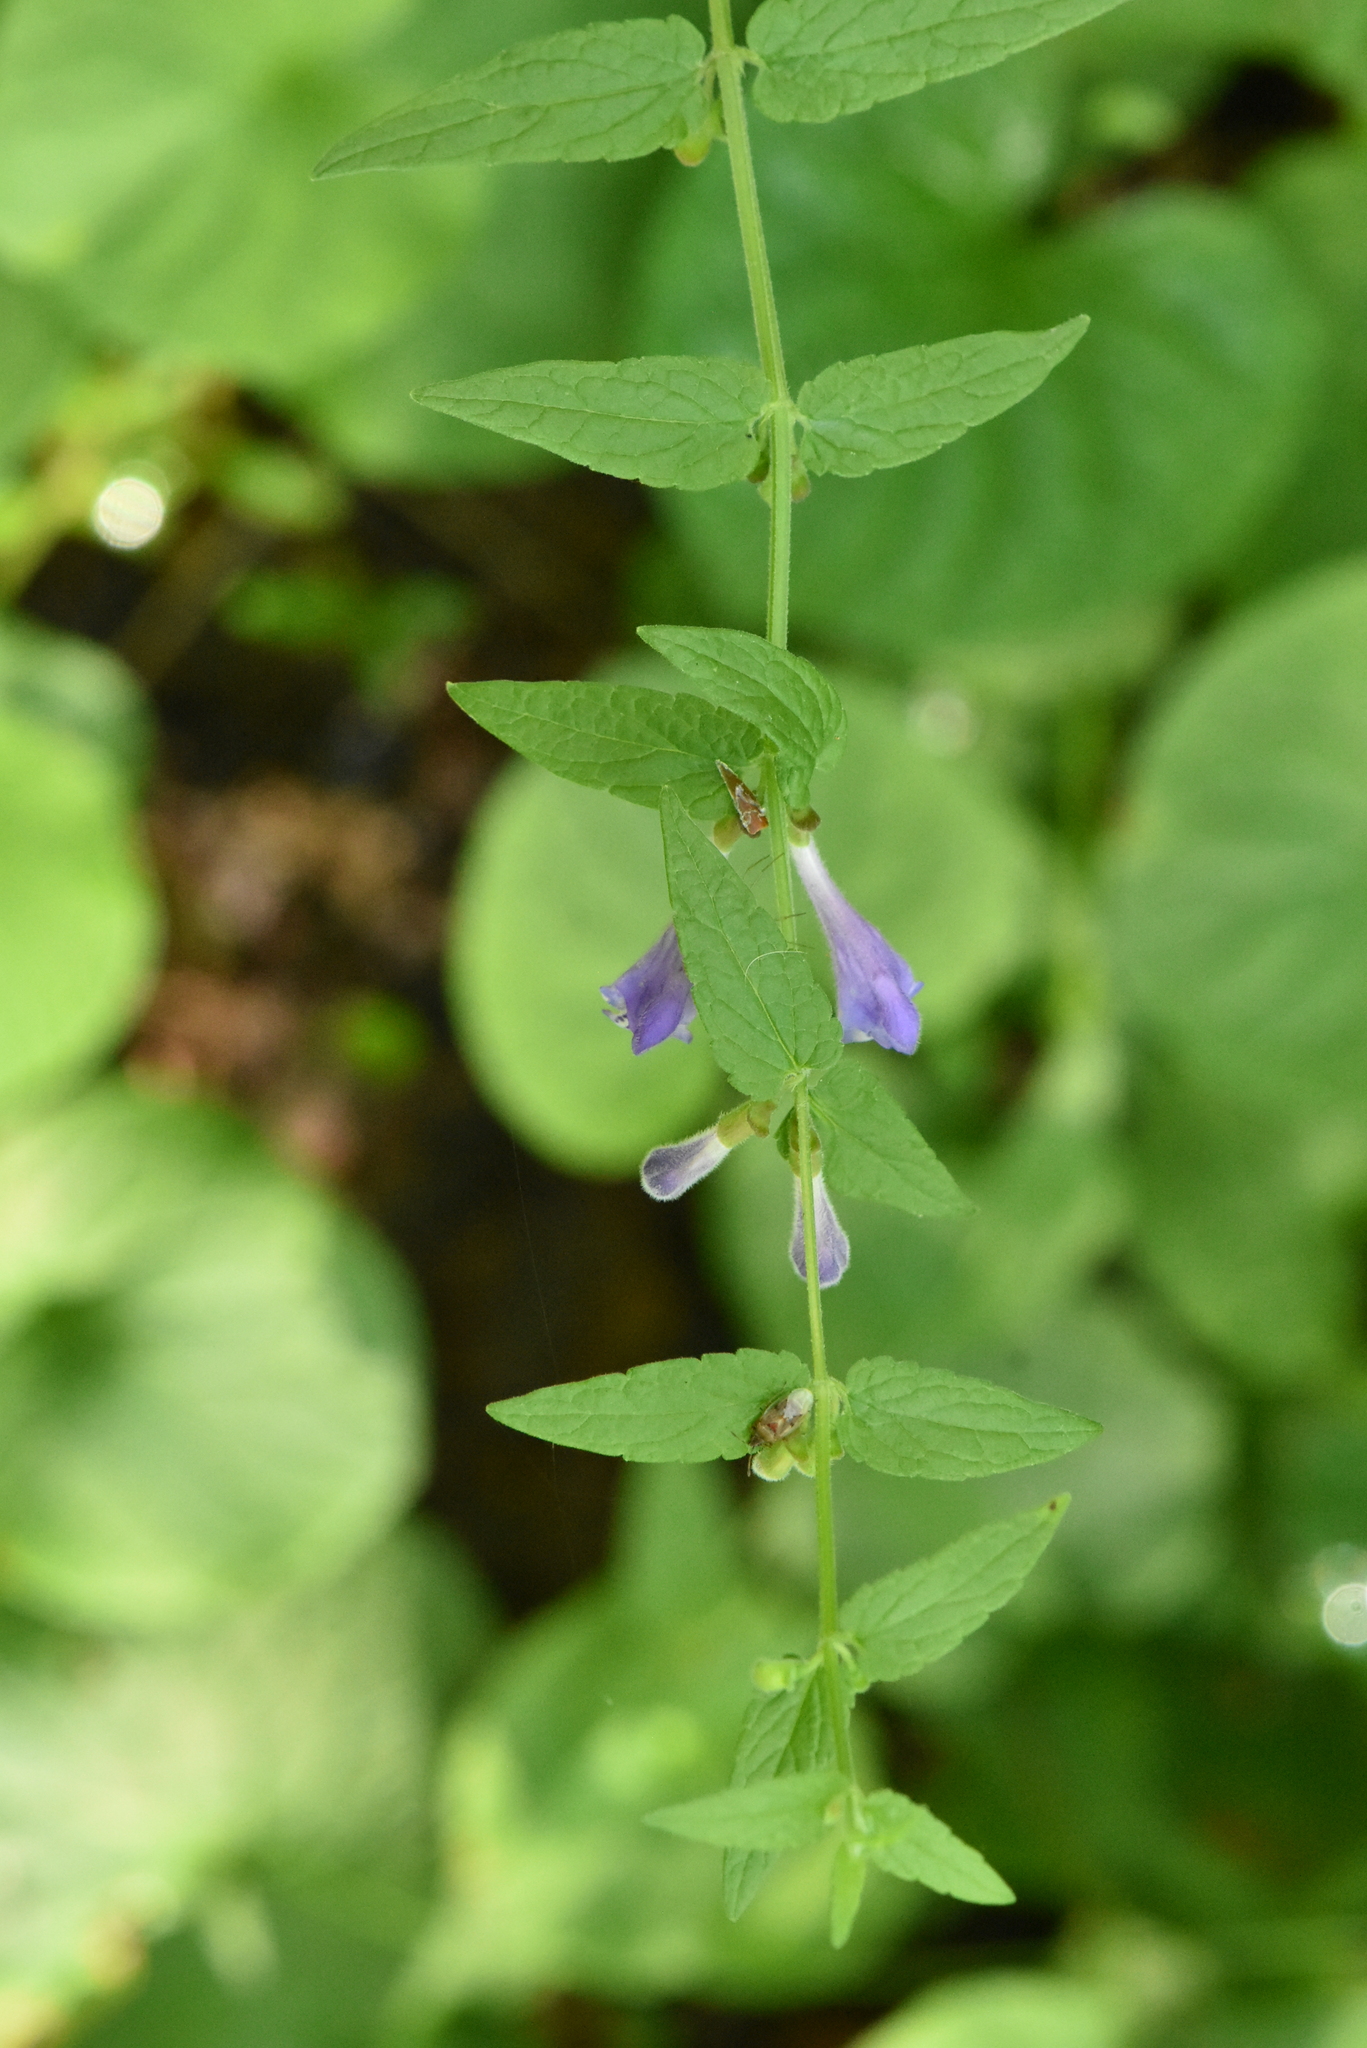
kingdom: Plantae
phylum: Tracheophyta
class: Magnoliopsida
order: Lamiales
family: Lamiaceae
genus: Scutellaria
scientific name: Scutellaria galericulata
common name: Skullcap
